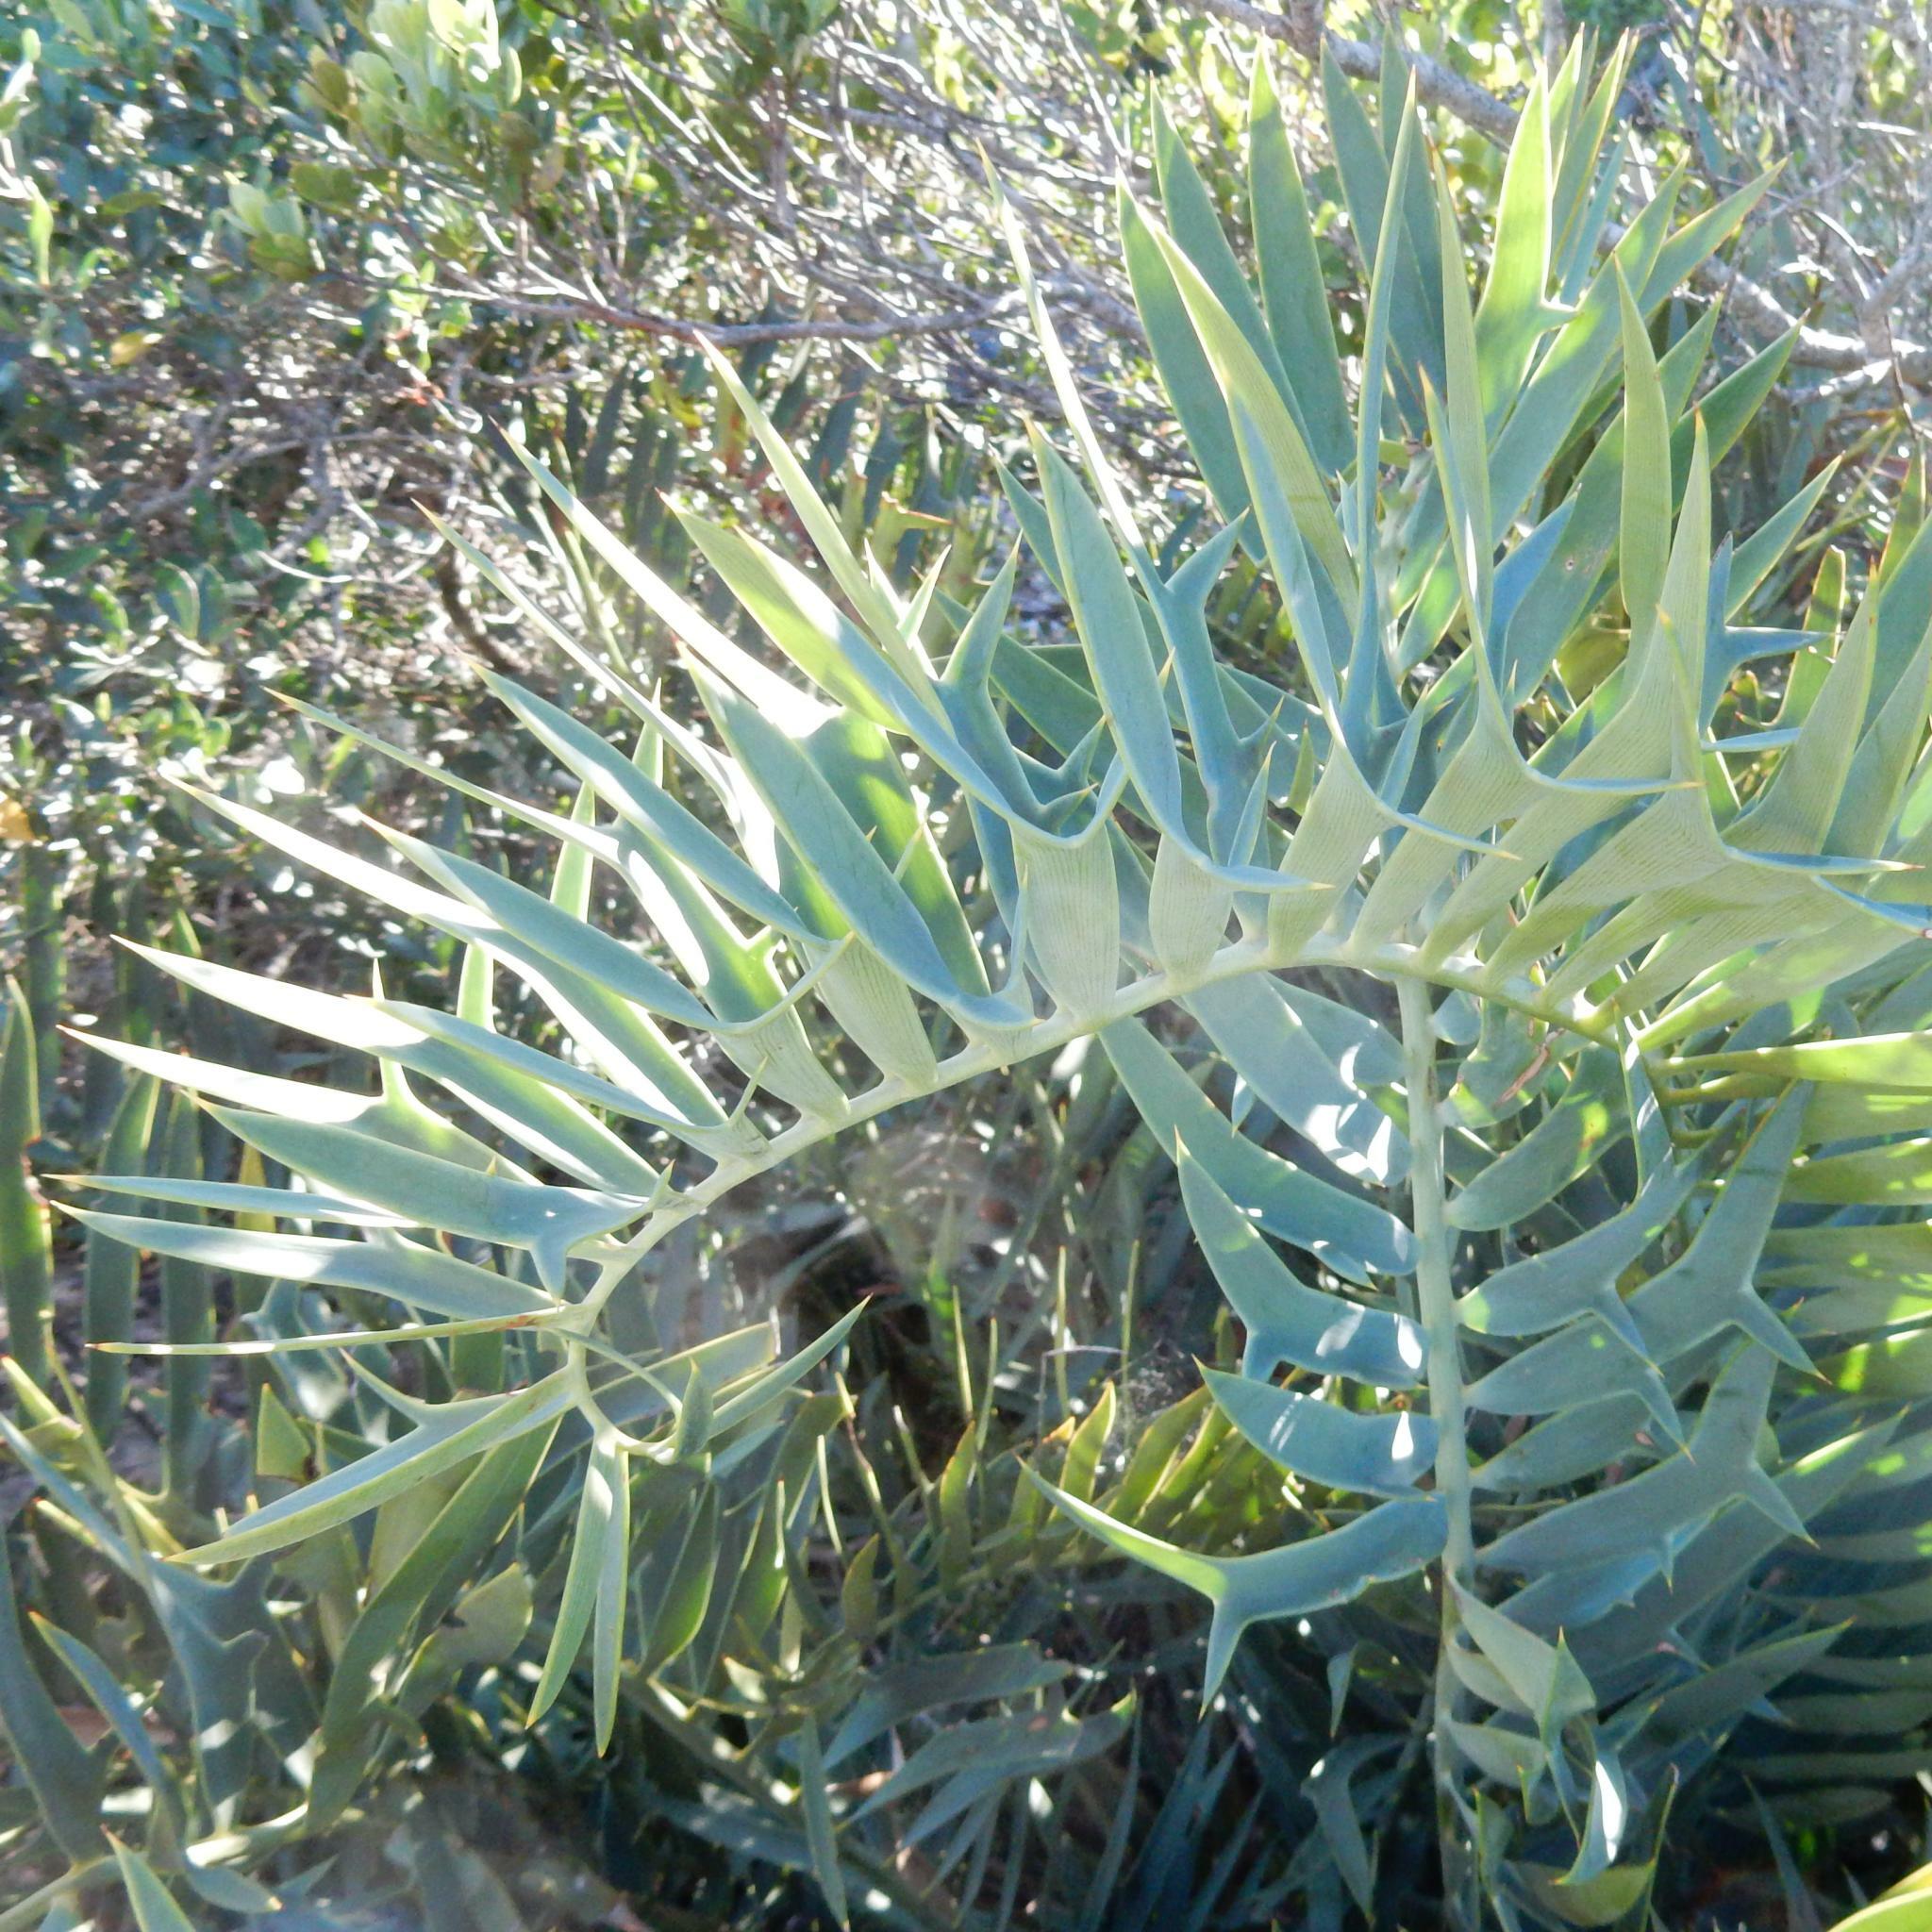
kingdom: Plantae
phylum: Tracheophyta
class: Cycadopsida
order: Cycadales
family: Zamiaceae
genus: Encephalartos
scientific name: Encephalartos trispinosus
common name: Bushman's river cycad
